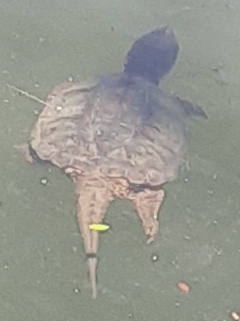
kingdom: Animalia
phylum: Chordata
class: Testudines
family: Chelydridae
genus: Chelydra
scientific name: Chelydra serpentina
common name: Common snapping turtle
